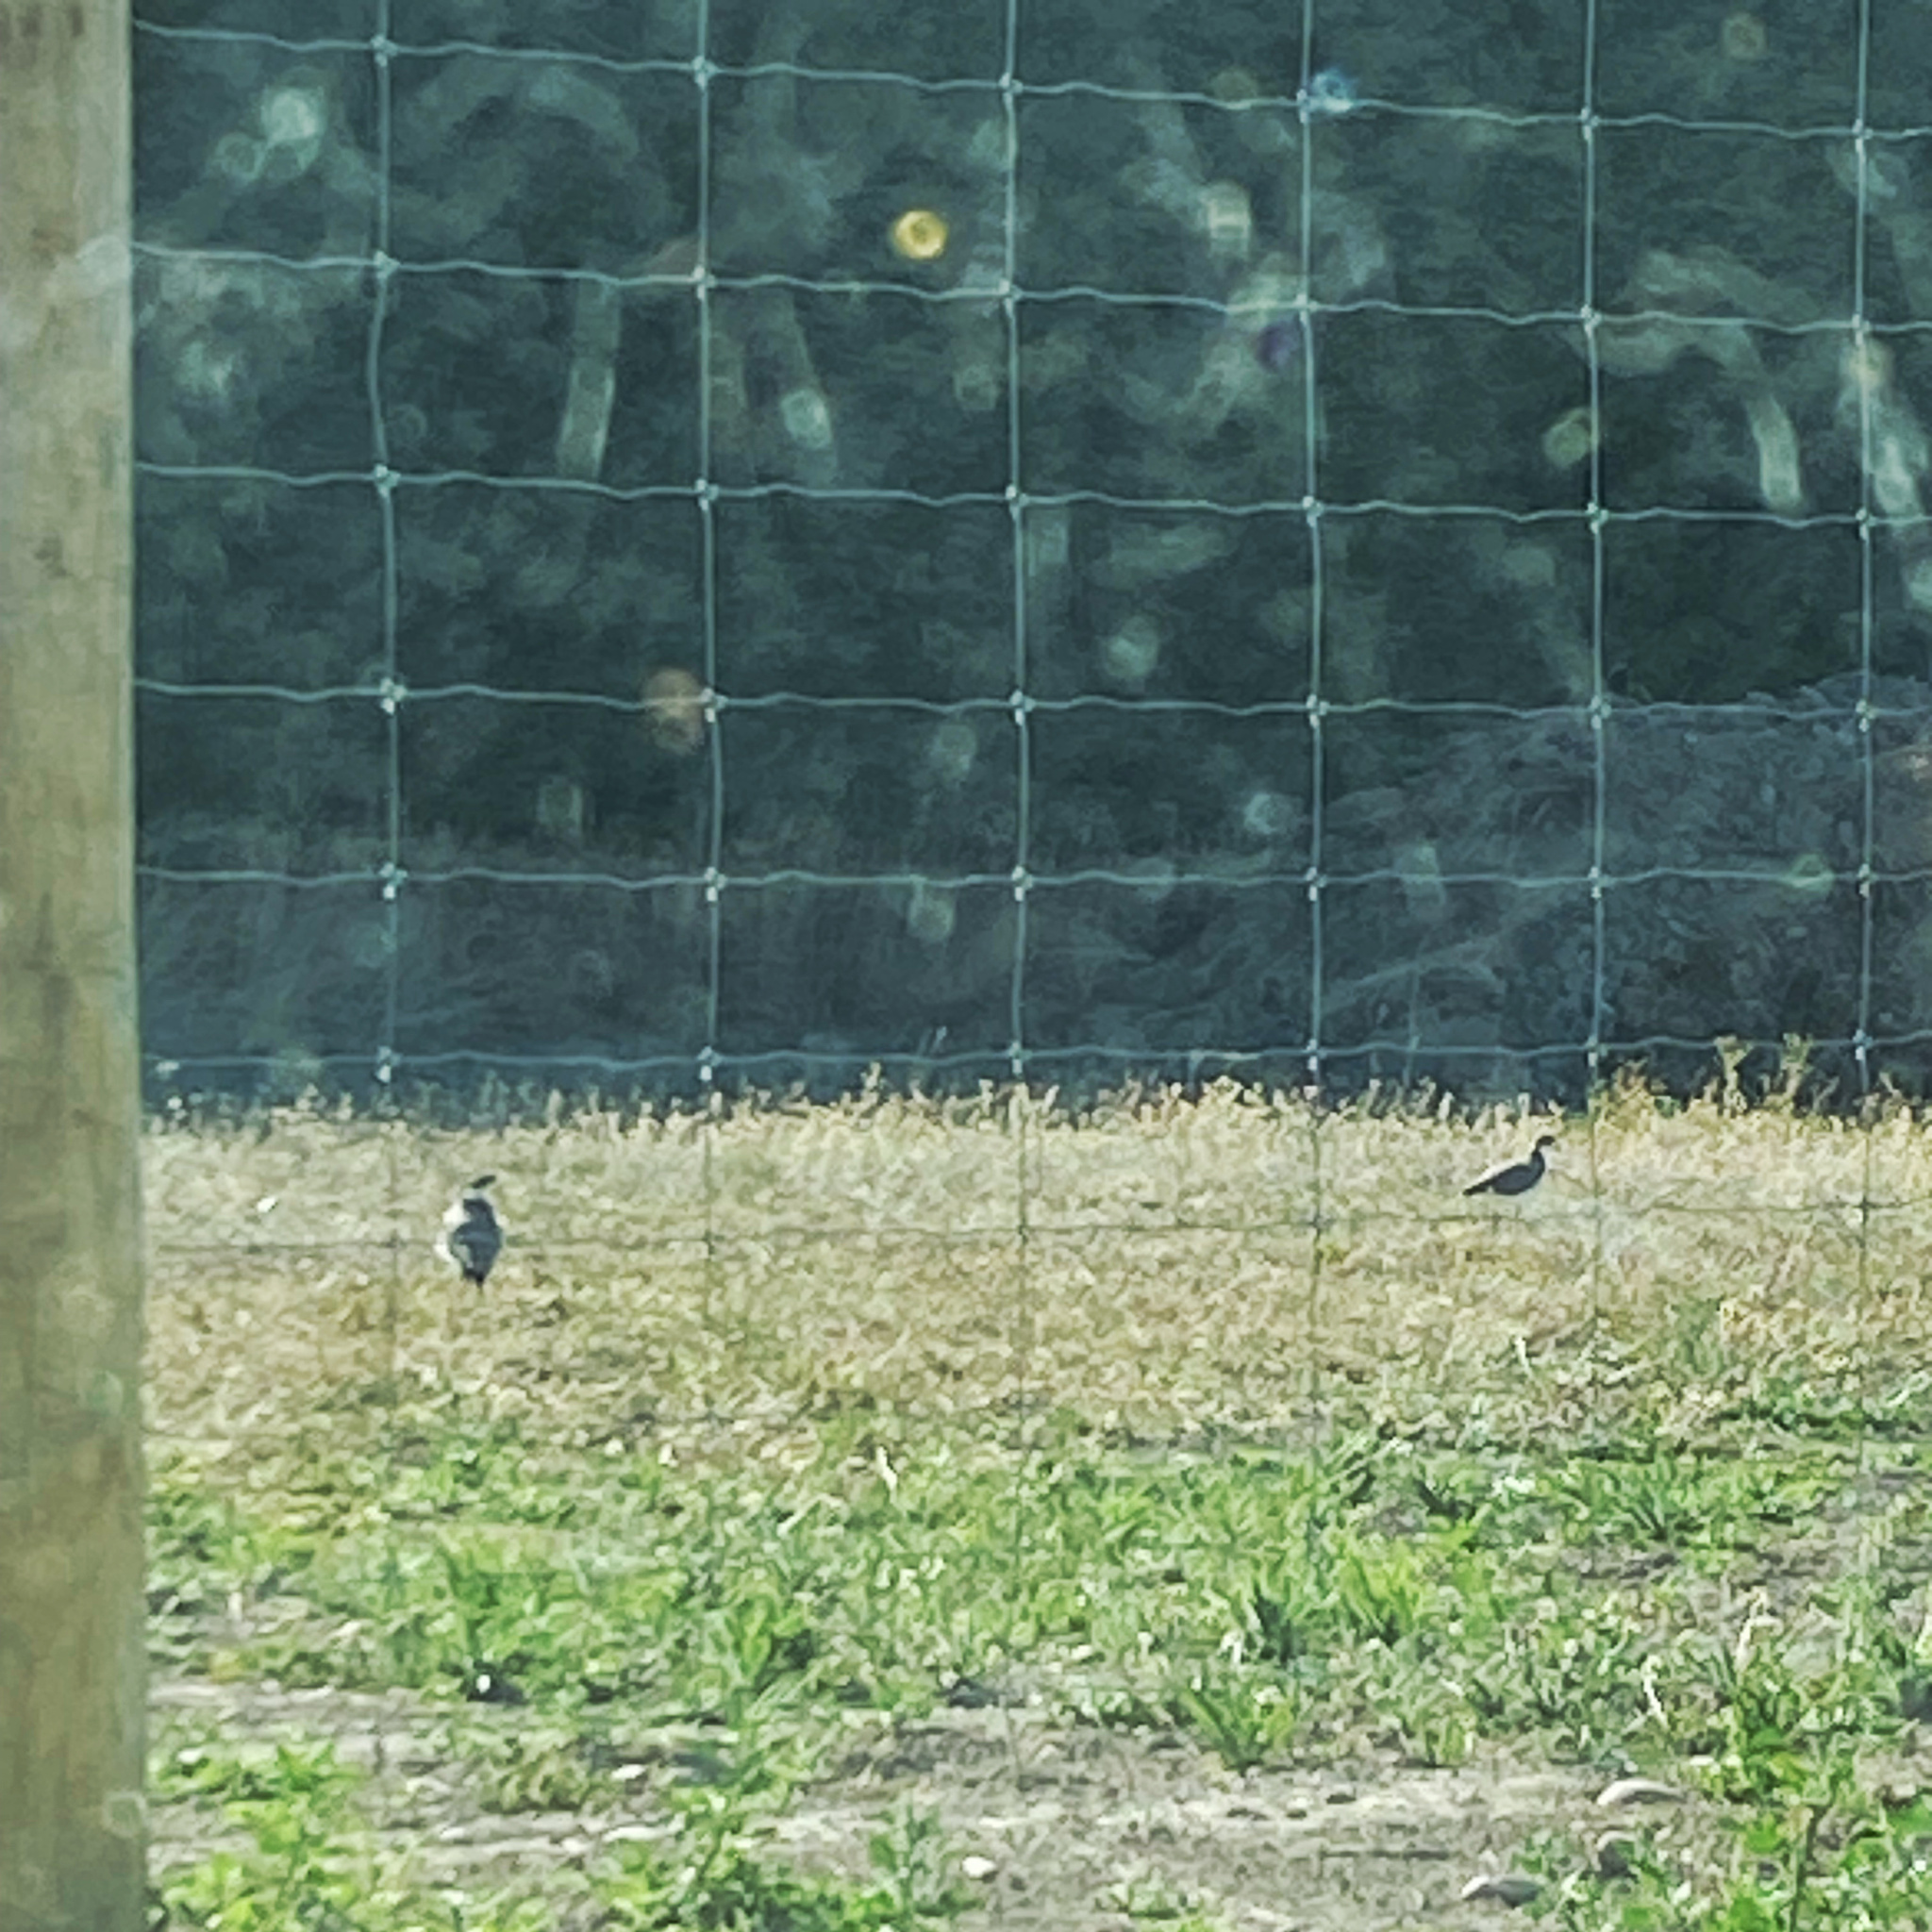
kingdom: Animalia
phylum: Chordata
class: Aves
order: Charadriiformes
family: Charadriidae
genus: Vanellus
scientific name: Vanellus miles
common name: Masked lapwing
